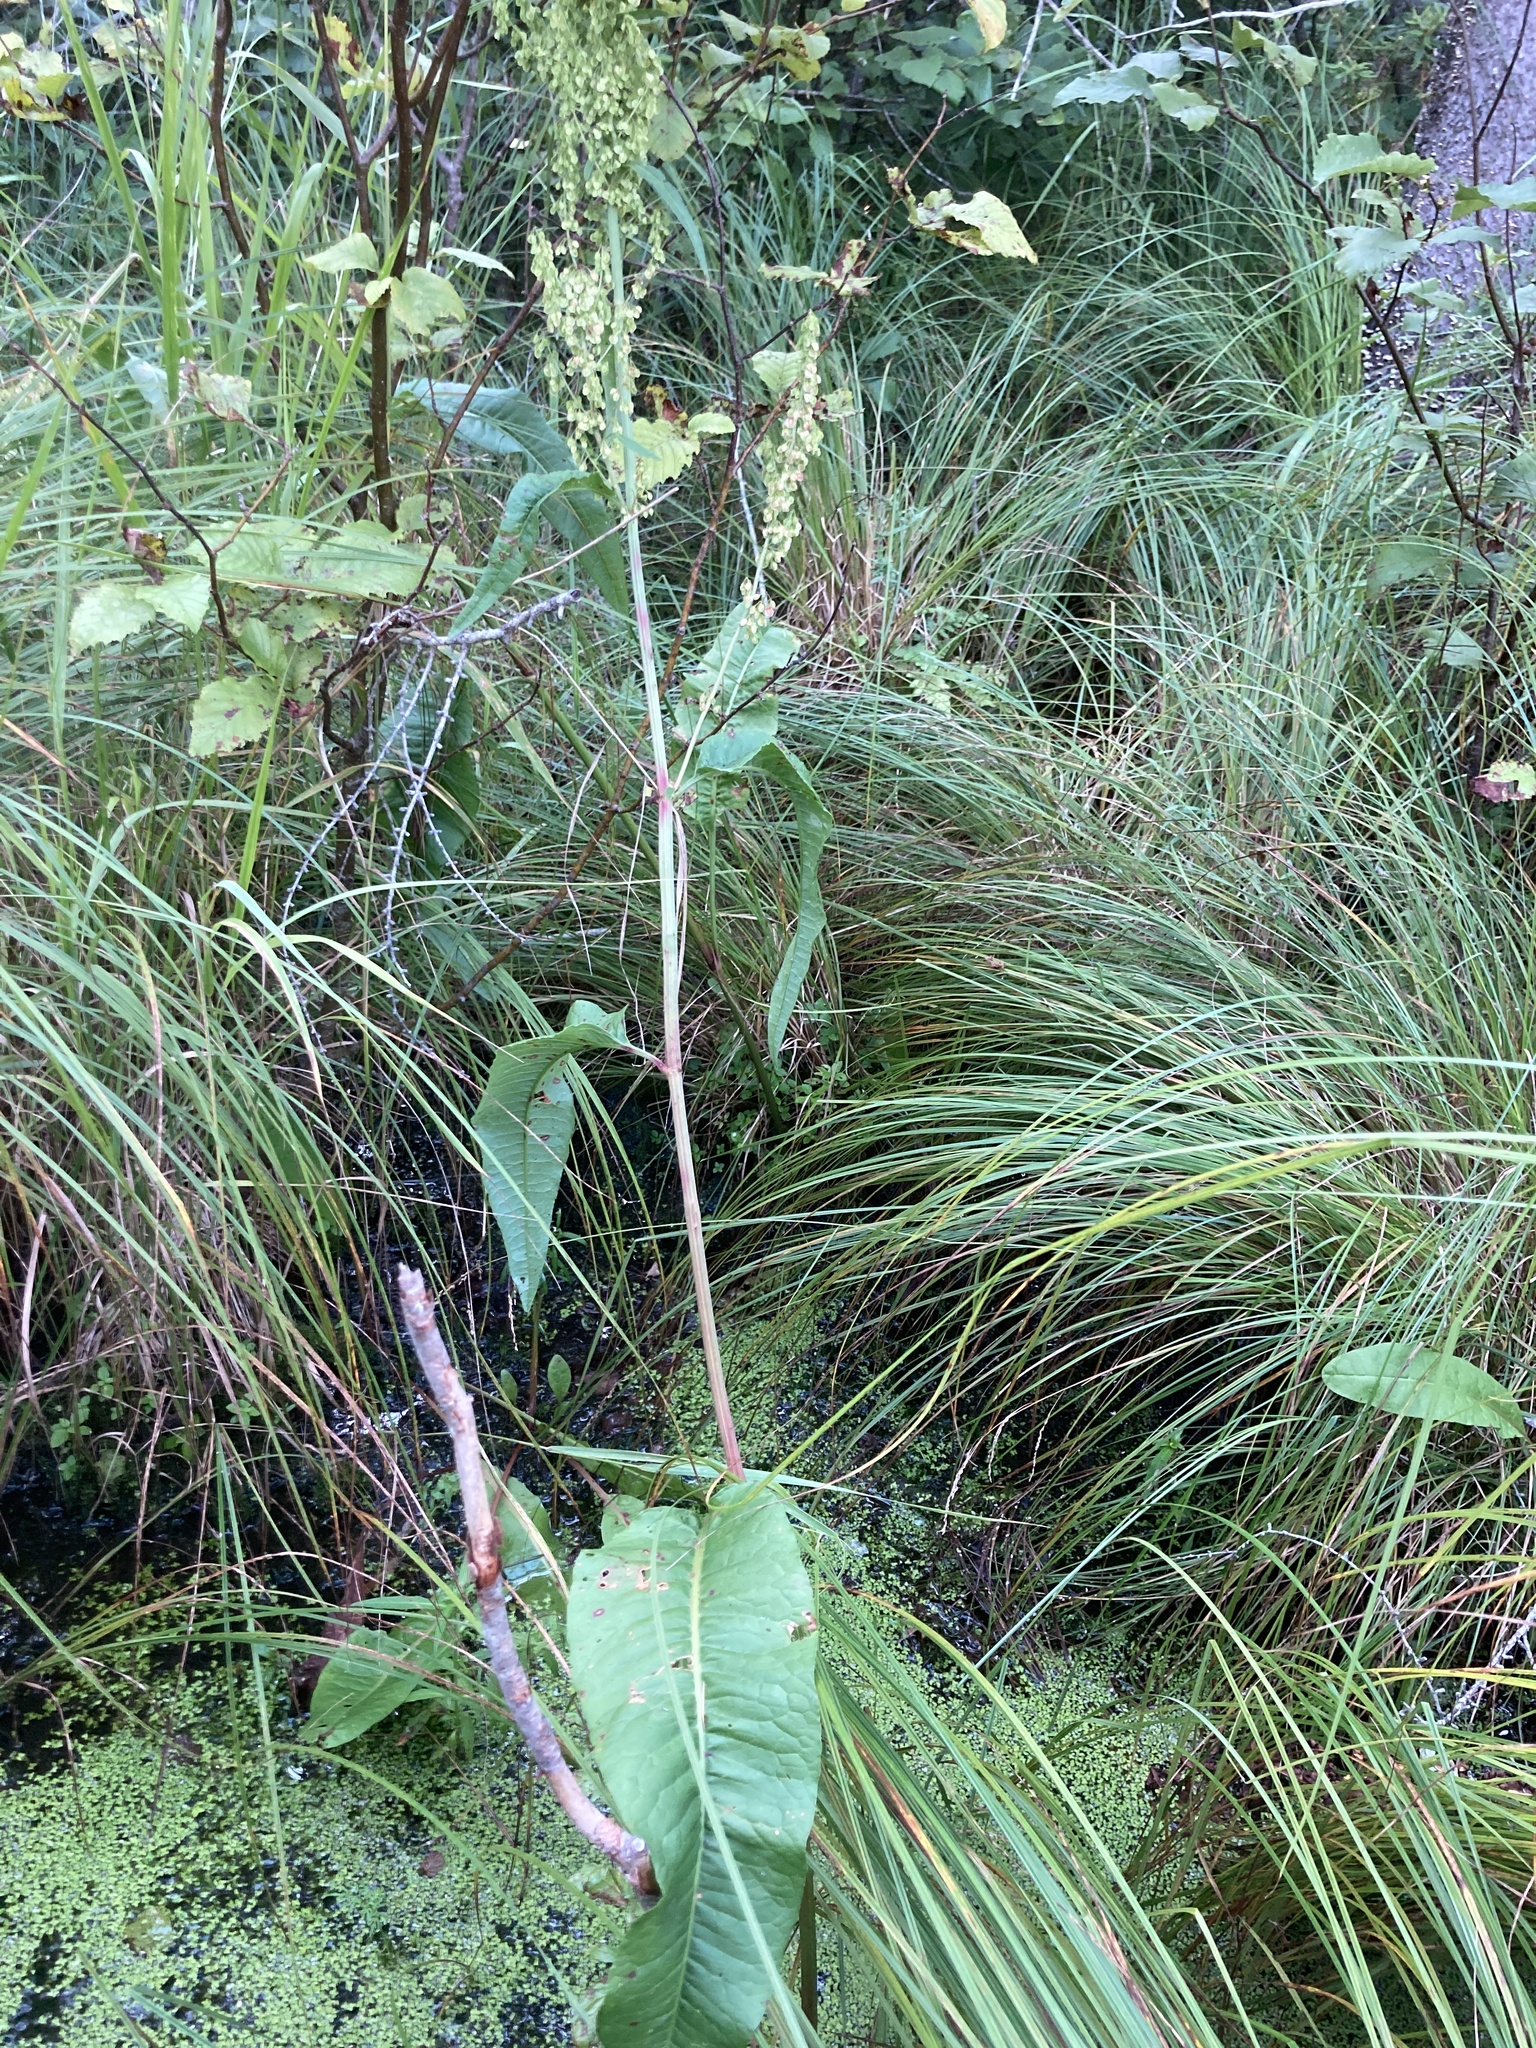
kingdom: Plantae
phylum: Tracheophyta
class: Magnoliopsida
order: Caryophyllales
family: Polygonaceae
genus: Rumex
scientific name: Rumex britannica
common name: British dock
